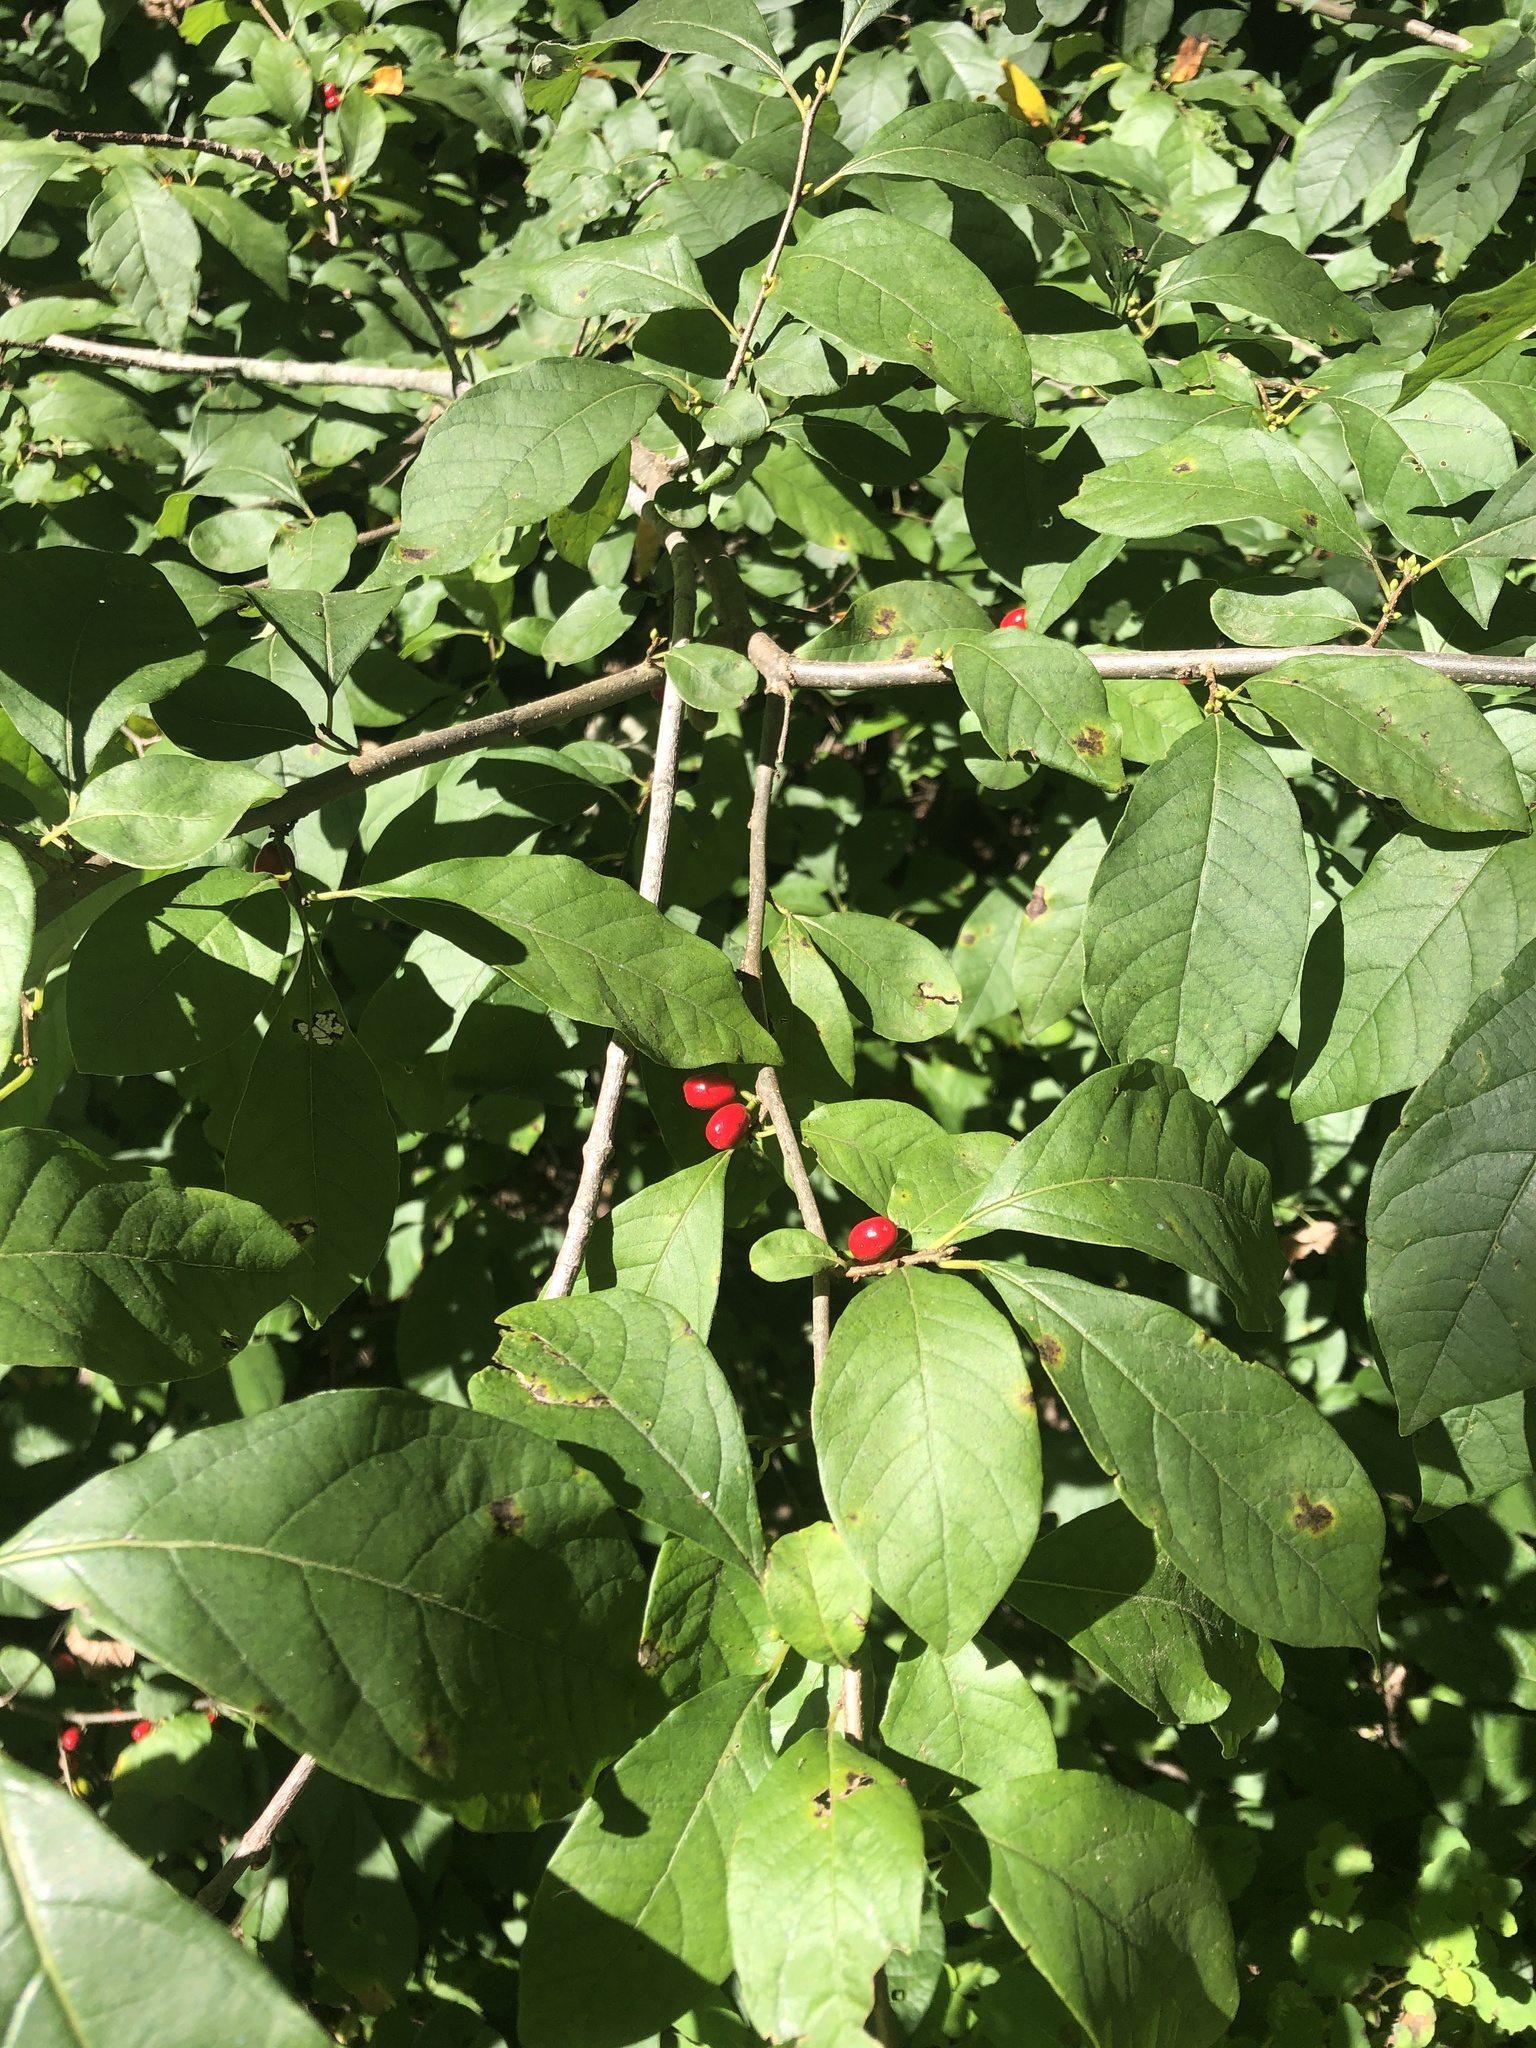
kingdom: Plantae
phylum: Tracheophyta
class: Magnoliopsida
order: Laurales
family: Lauraceae
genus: Lindera
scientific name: Lindera benzoin
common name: Spicebush
